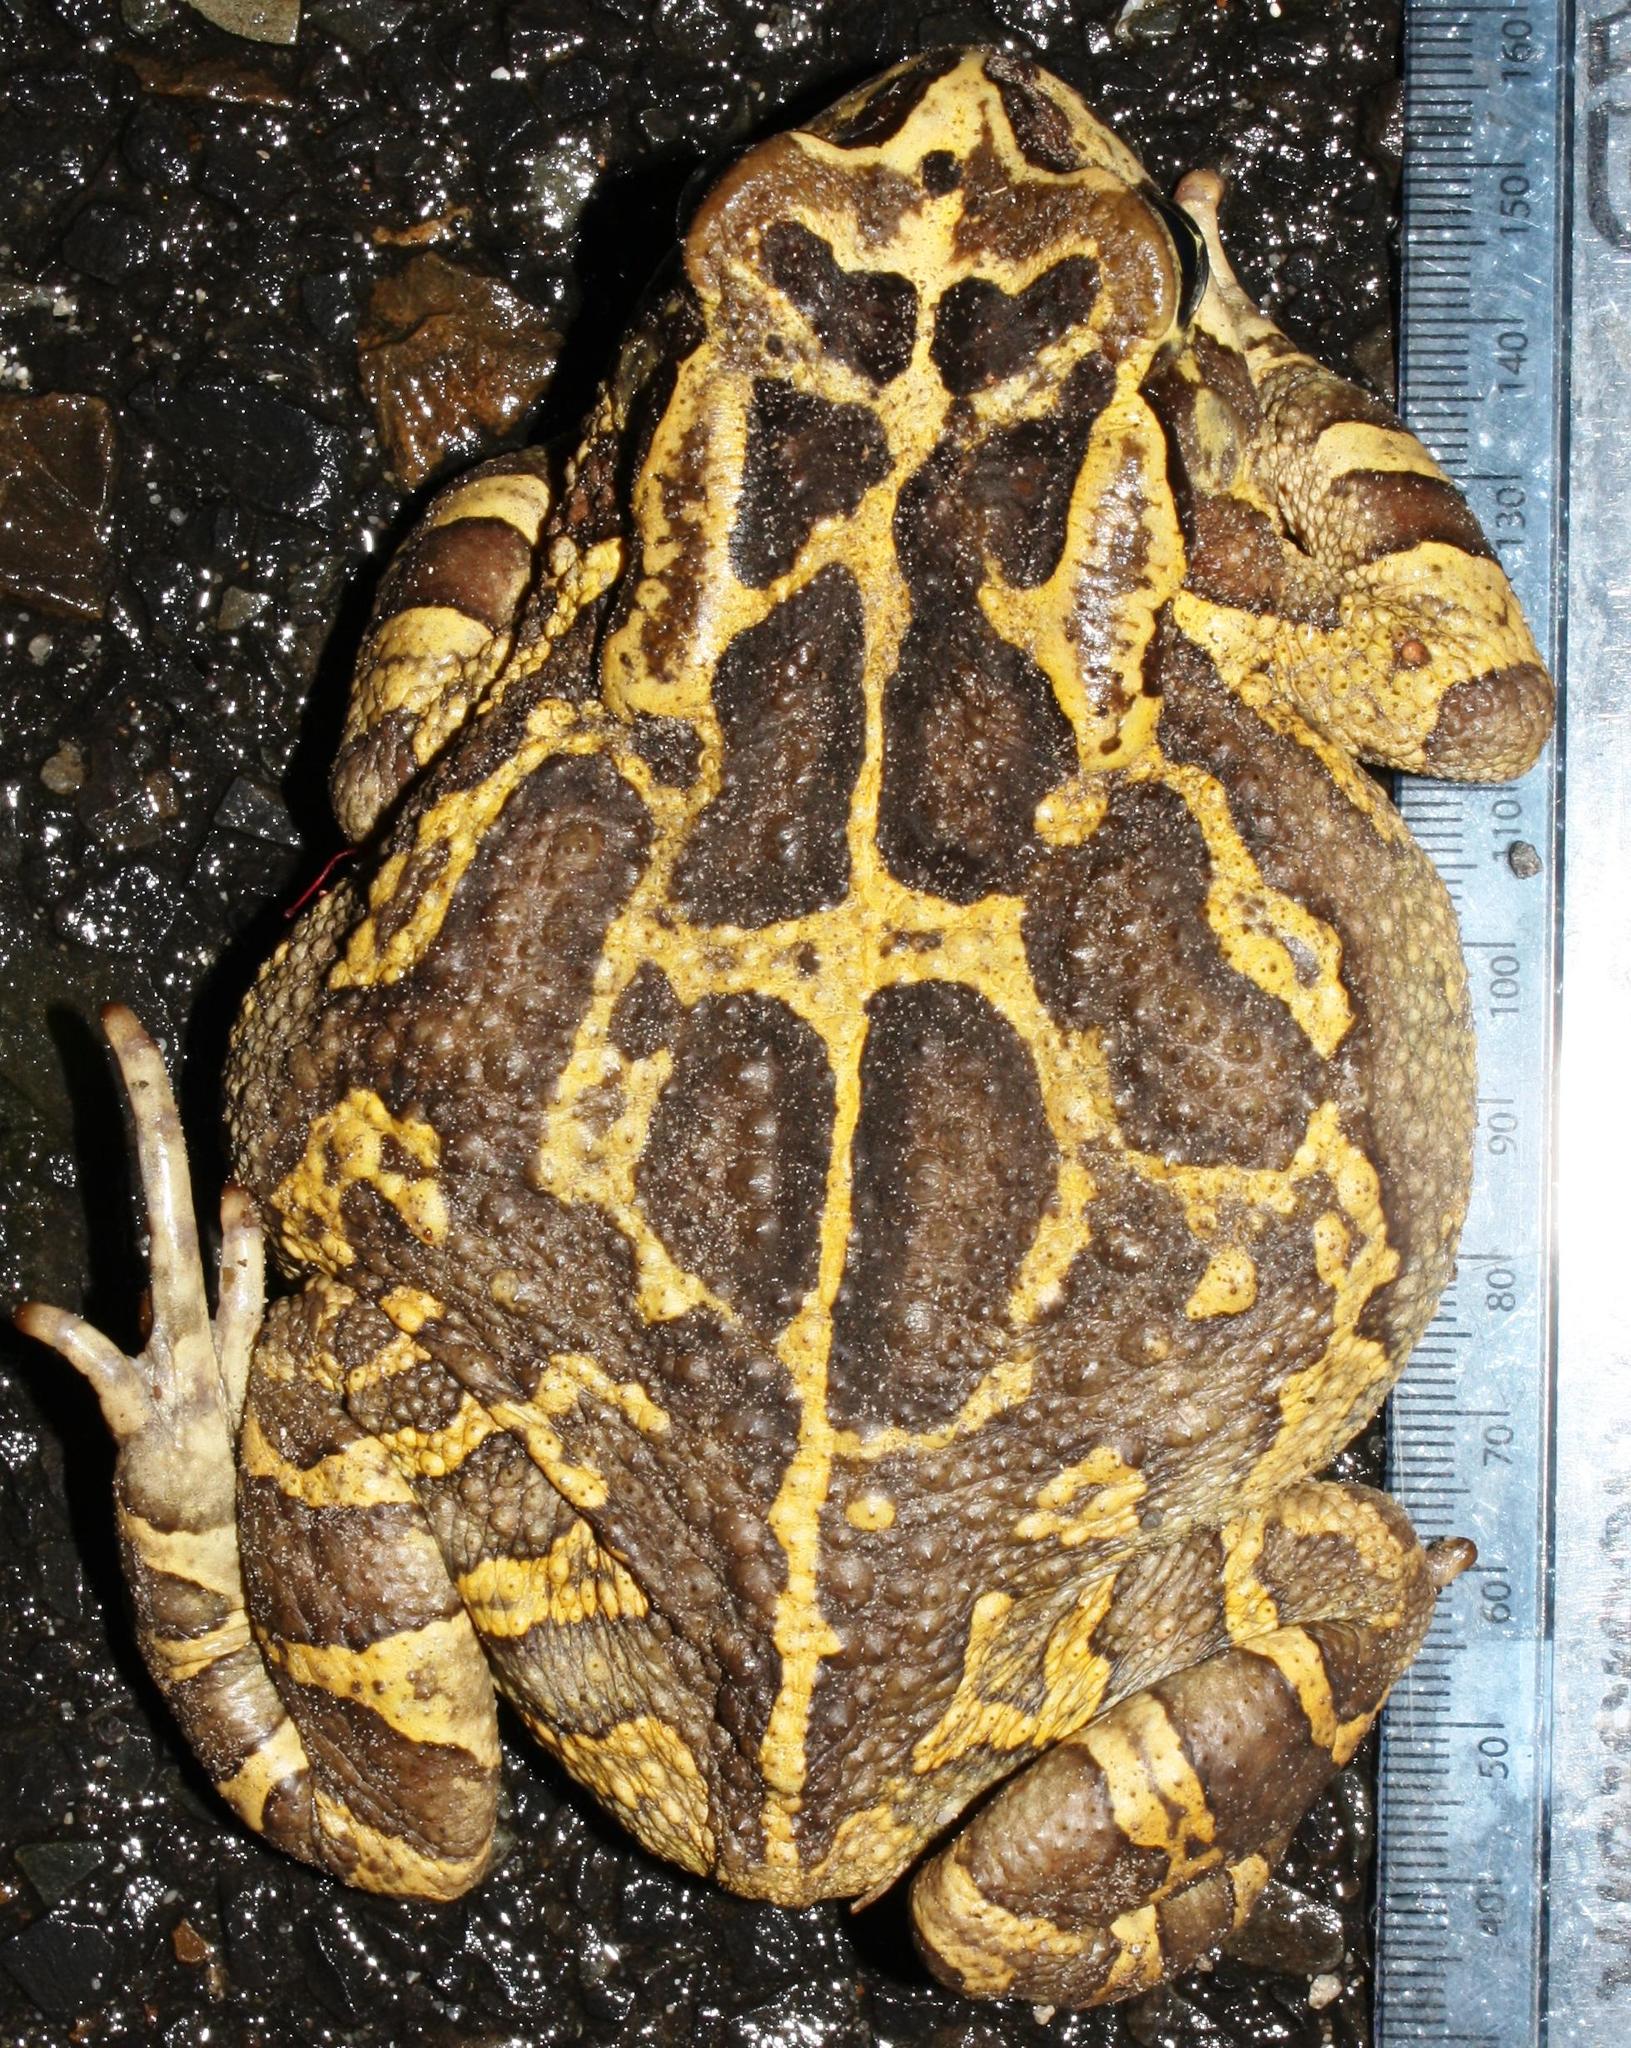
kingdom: Animalia
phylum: Chordata
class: Amphibia
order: Anura
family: Bufonidae
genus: Sclerophrys
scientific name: Sclerophrys pantherina
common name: Panther toad
